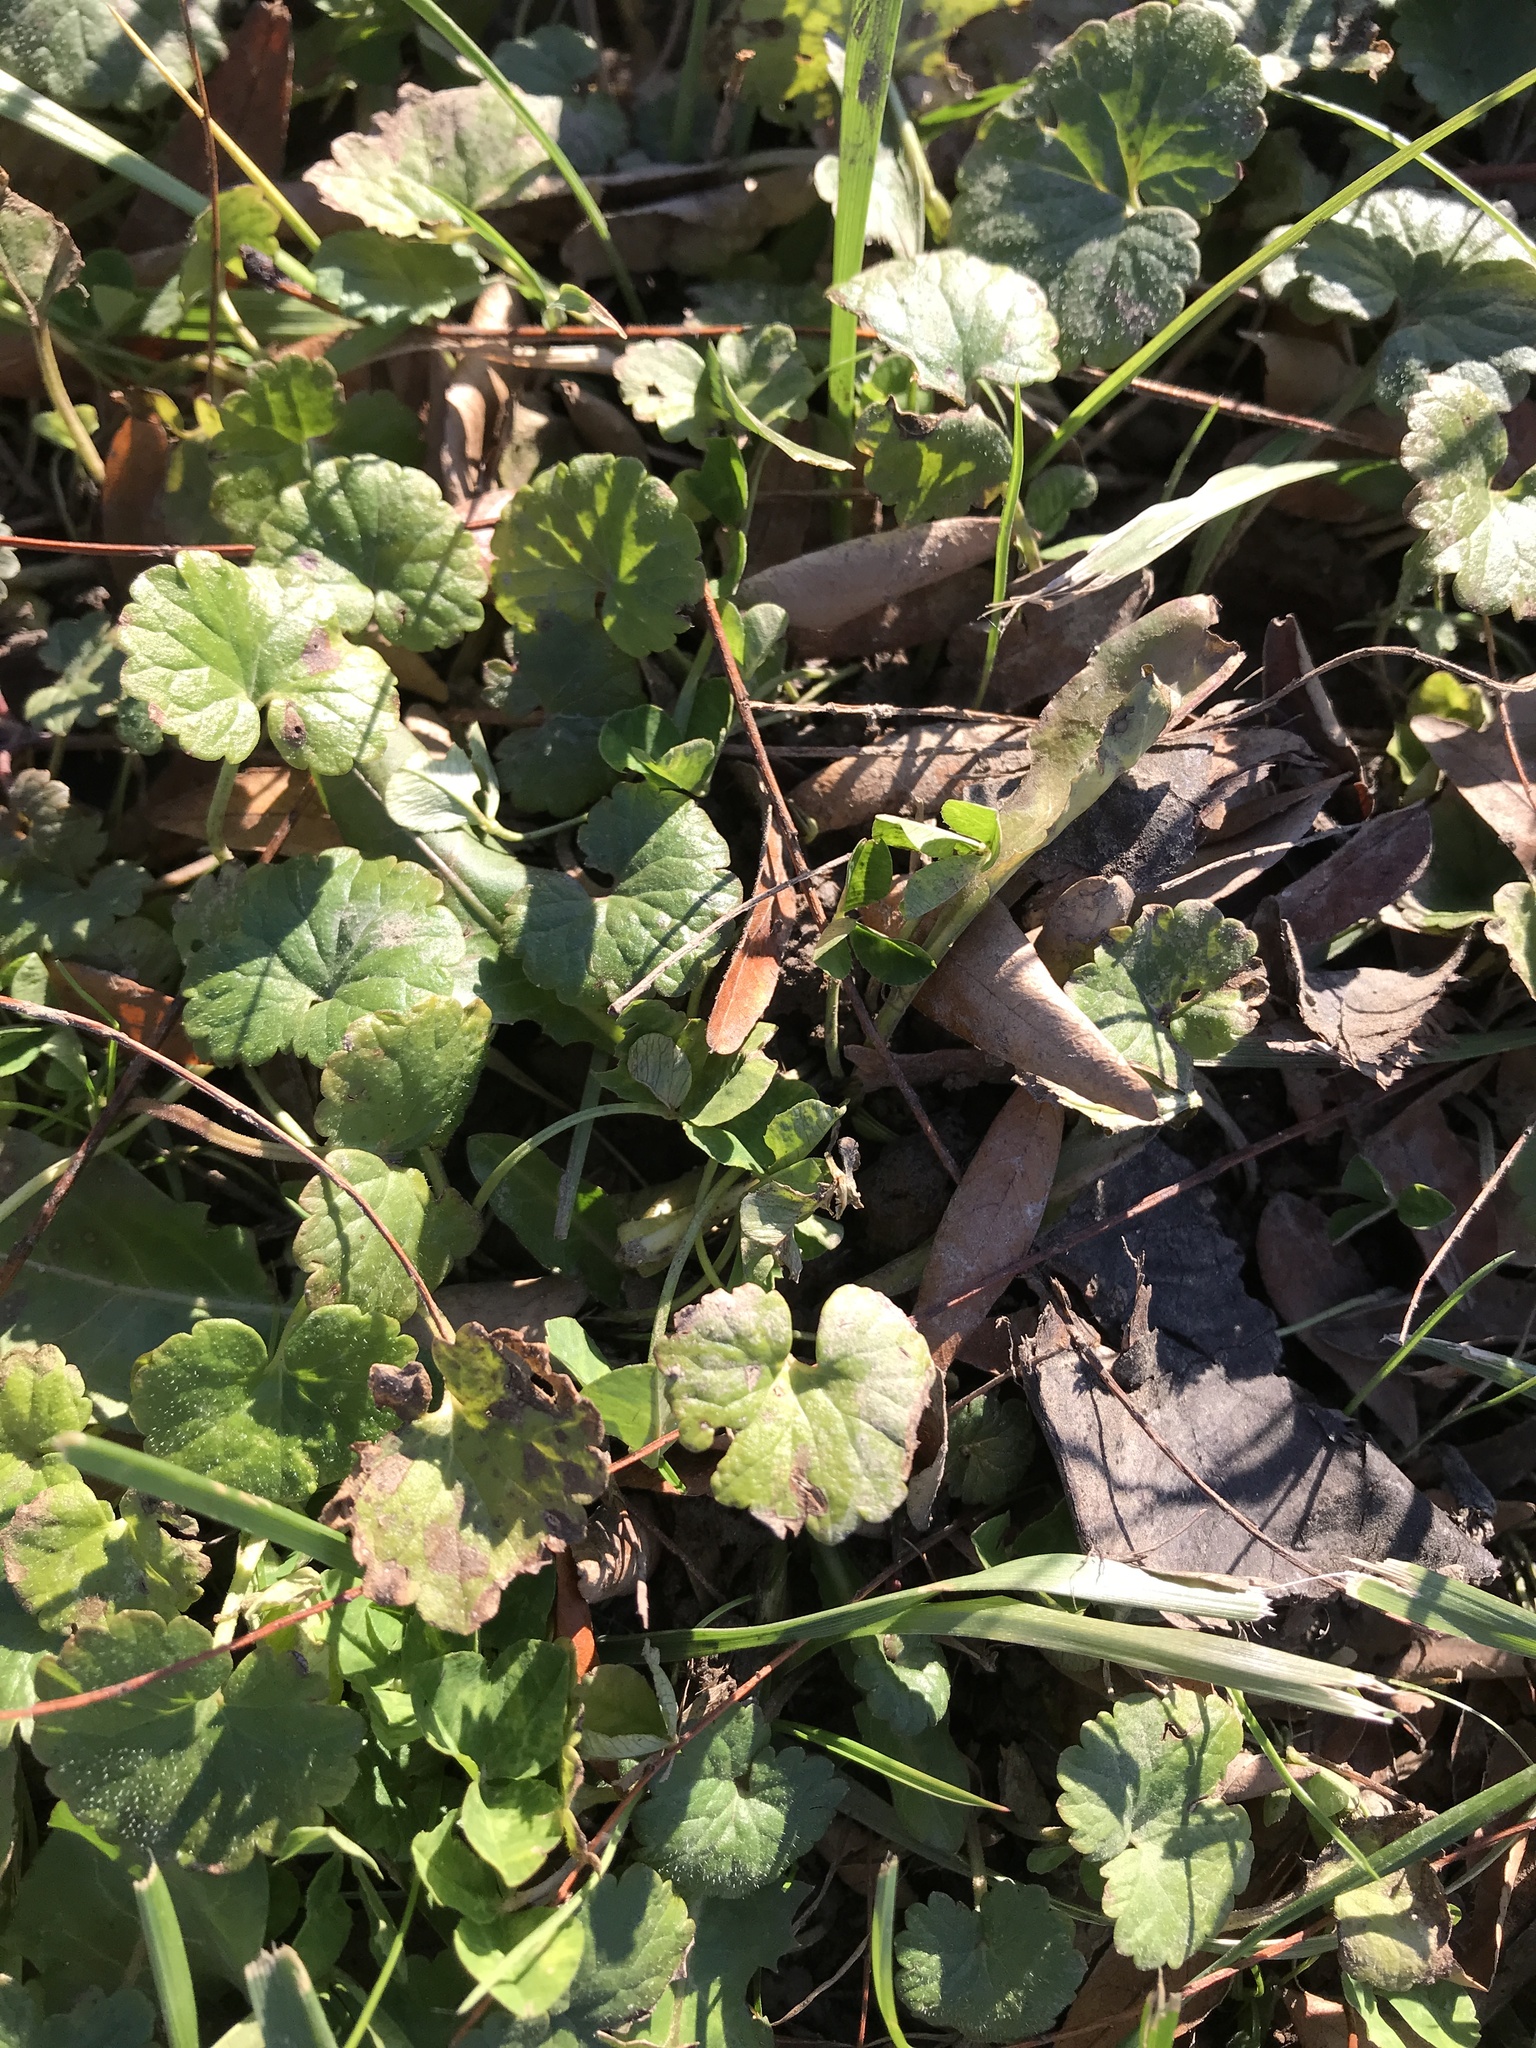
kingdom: Plantae
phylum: Tracheophyta
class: Magnoliopsida
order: Lamiales
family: Lamiaceae
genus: Glechoma
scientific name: Glechoma hederacea
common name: Ground ivy
